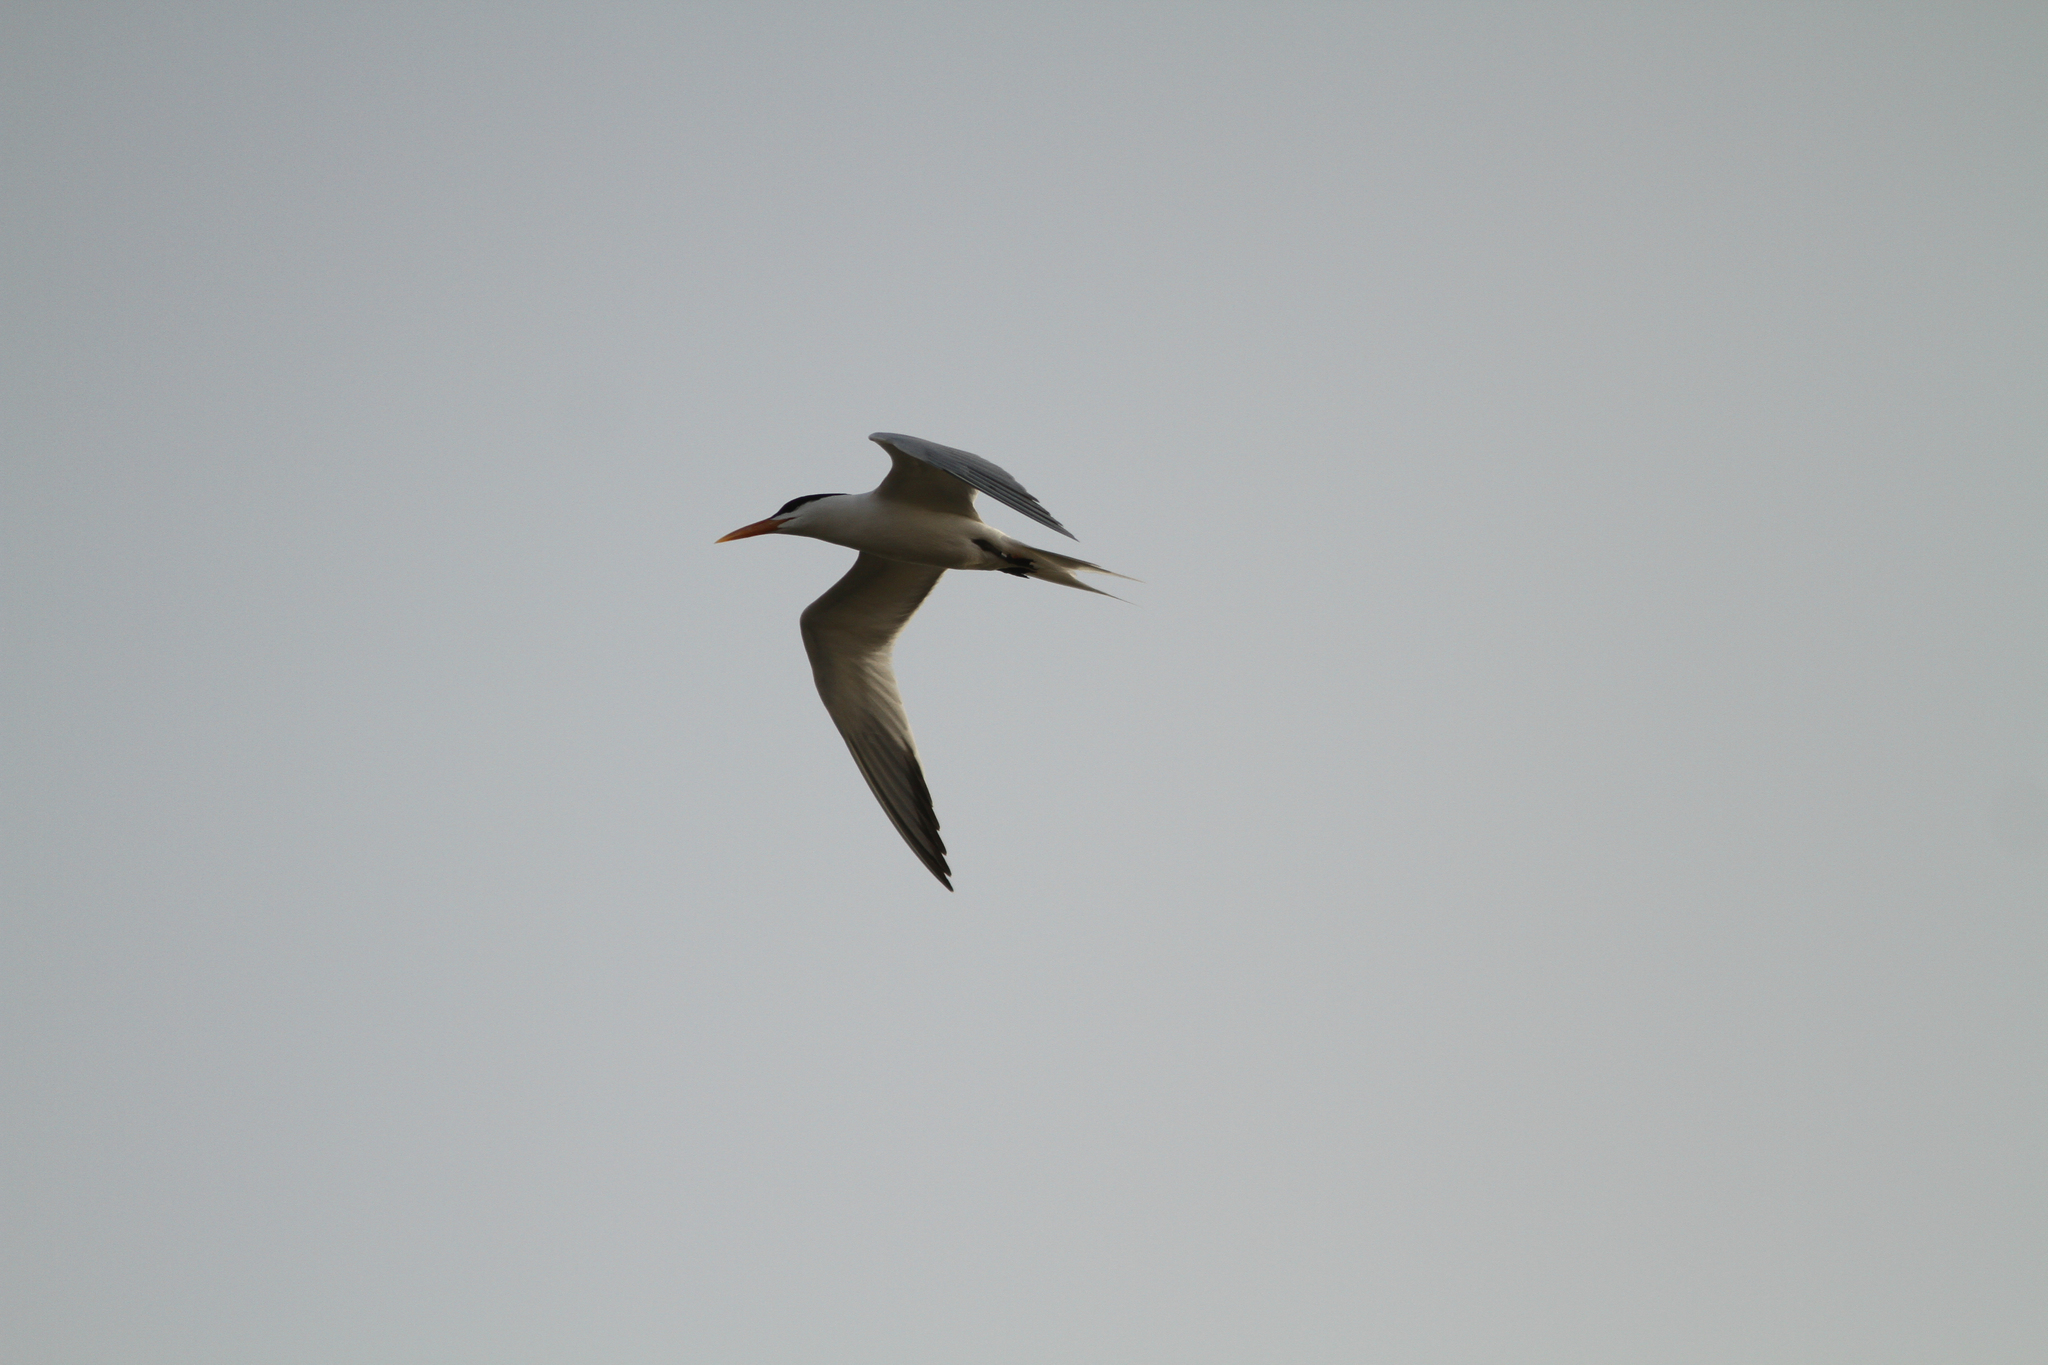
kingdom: Animalia
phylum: Chordata
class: Aves
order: Charadriiformes
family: Laridae
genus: Thalasseus
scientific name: Thalasseus albididorsalis
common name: West african crested tern
